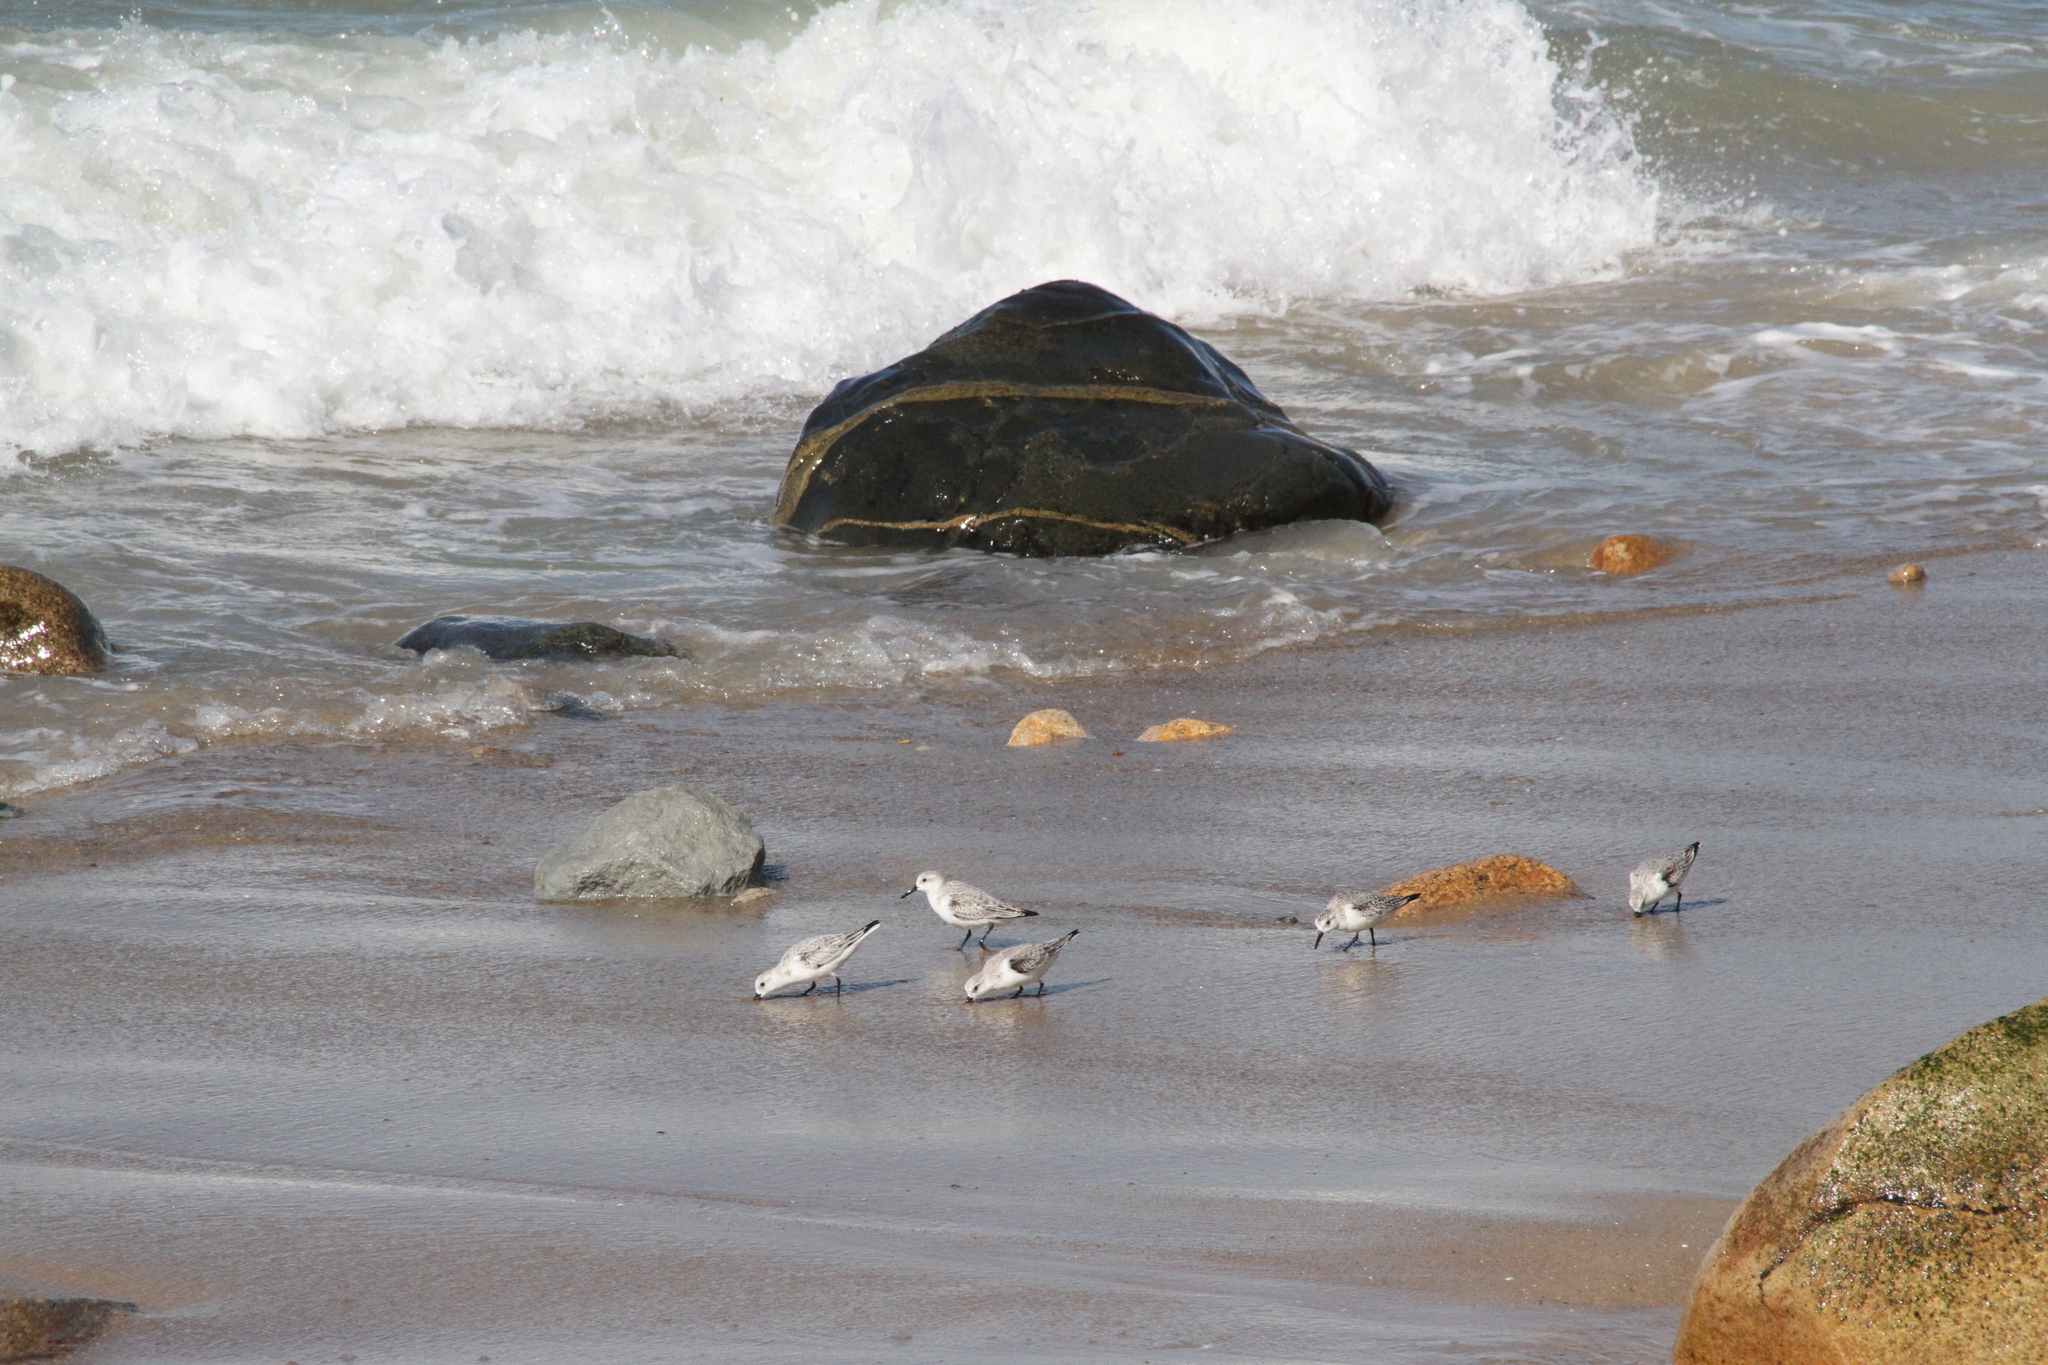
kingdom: Animalia
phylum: Chordata
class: Aves
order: Charadriiformes
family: Scolopacidae
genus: Calidris
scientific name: Calidris alba
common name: Sanderling
